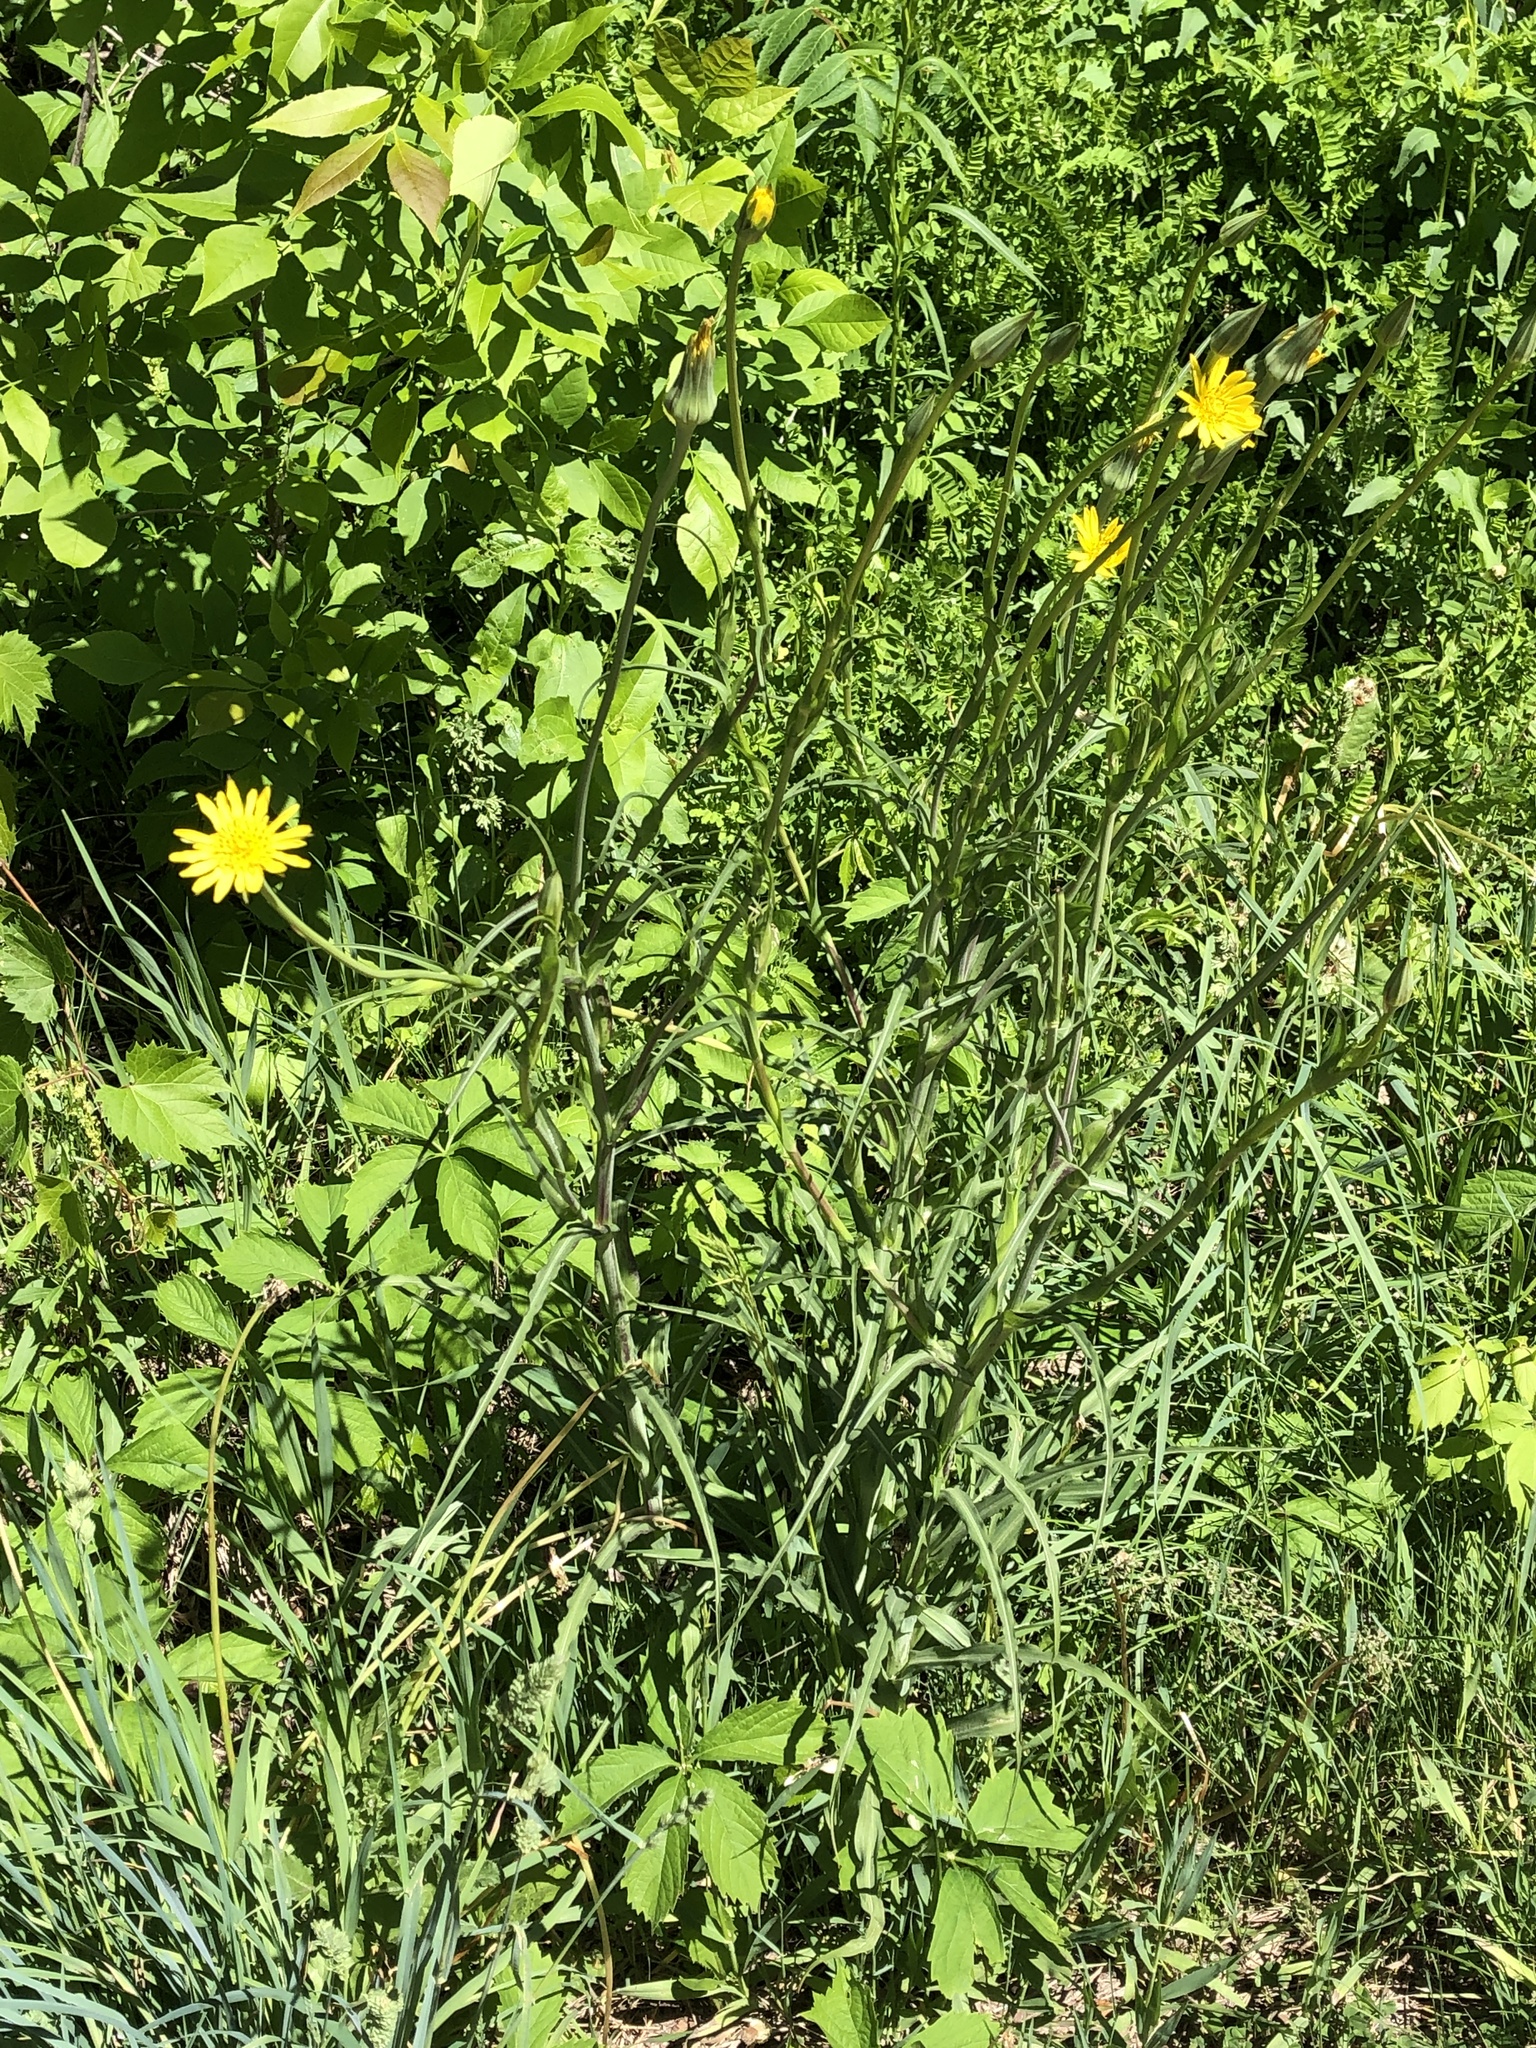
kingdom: Plantae
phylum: Tracheophyta
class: Magnoliopsida
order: Asterales
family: Asteraceae
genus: Tragopogon
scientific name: Tragopogon pratensis
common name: Goat's-beard
